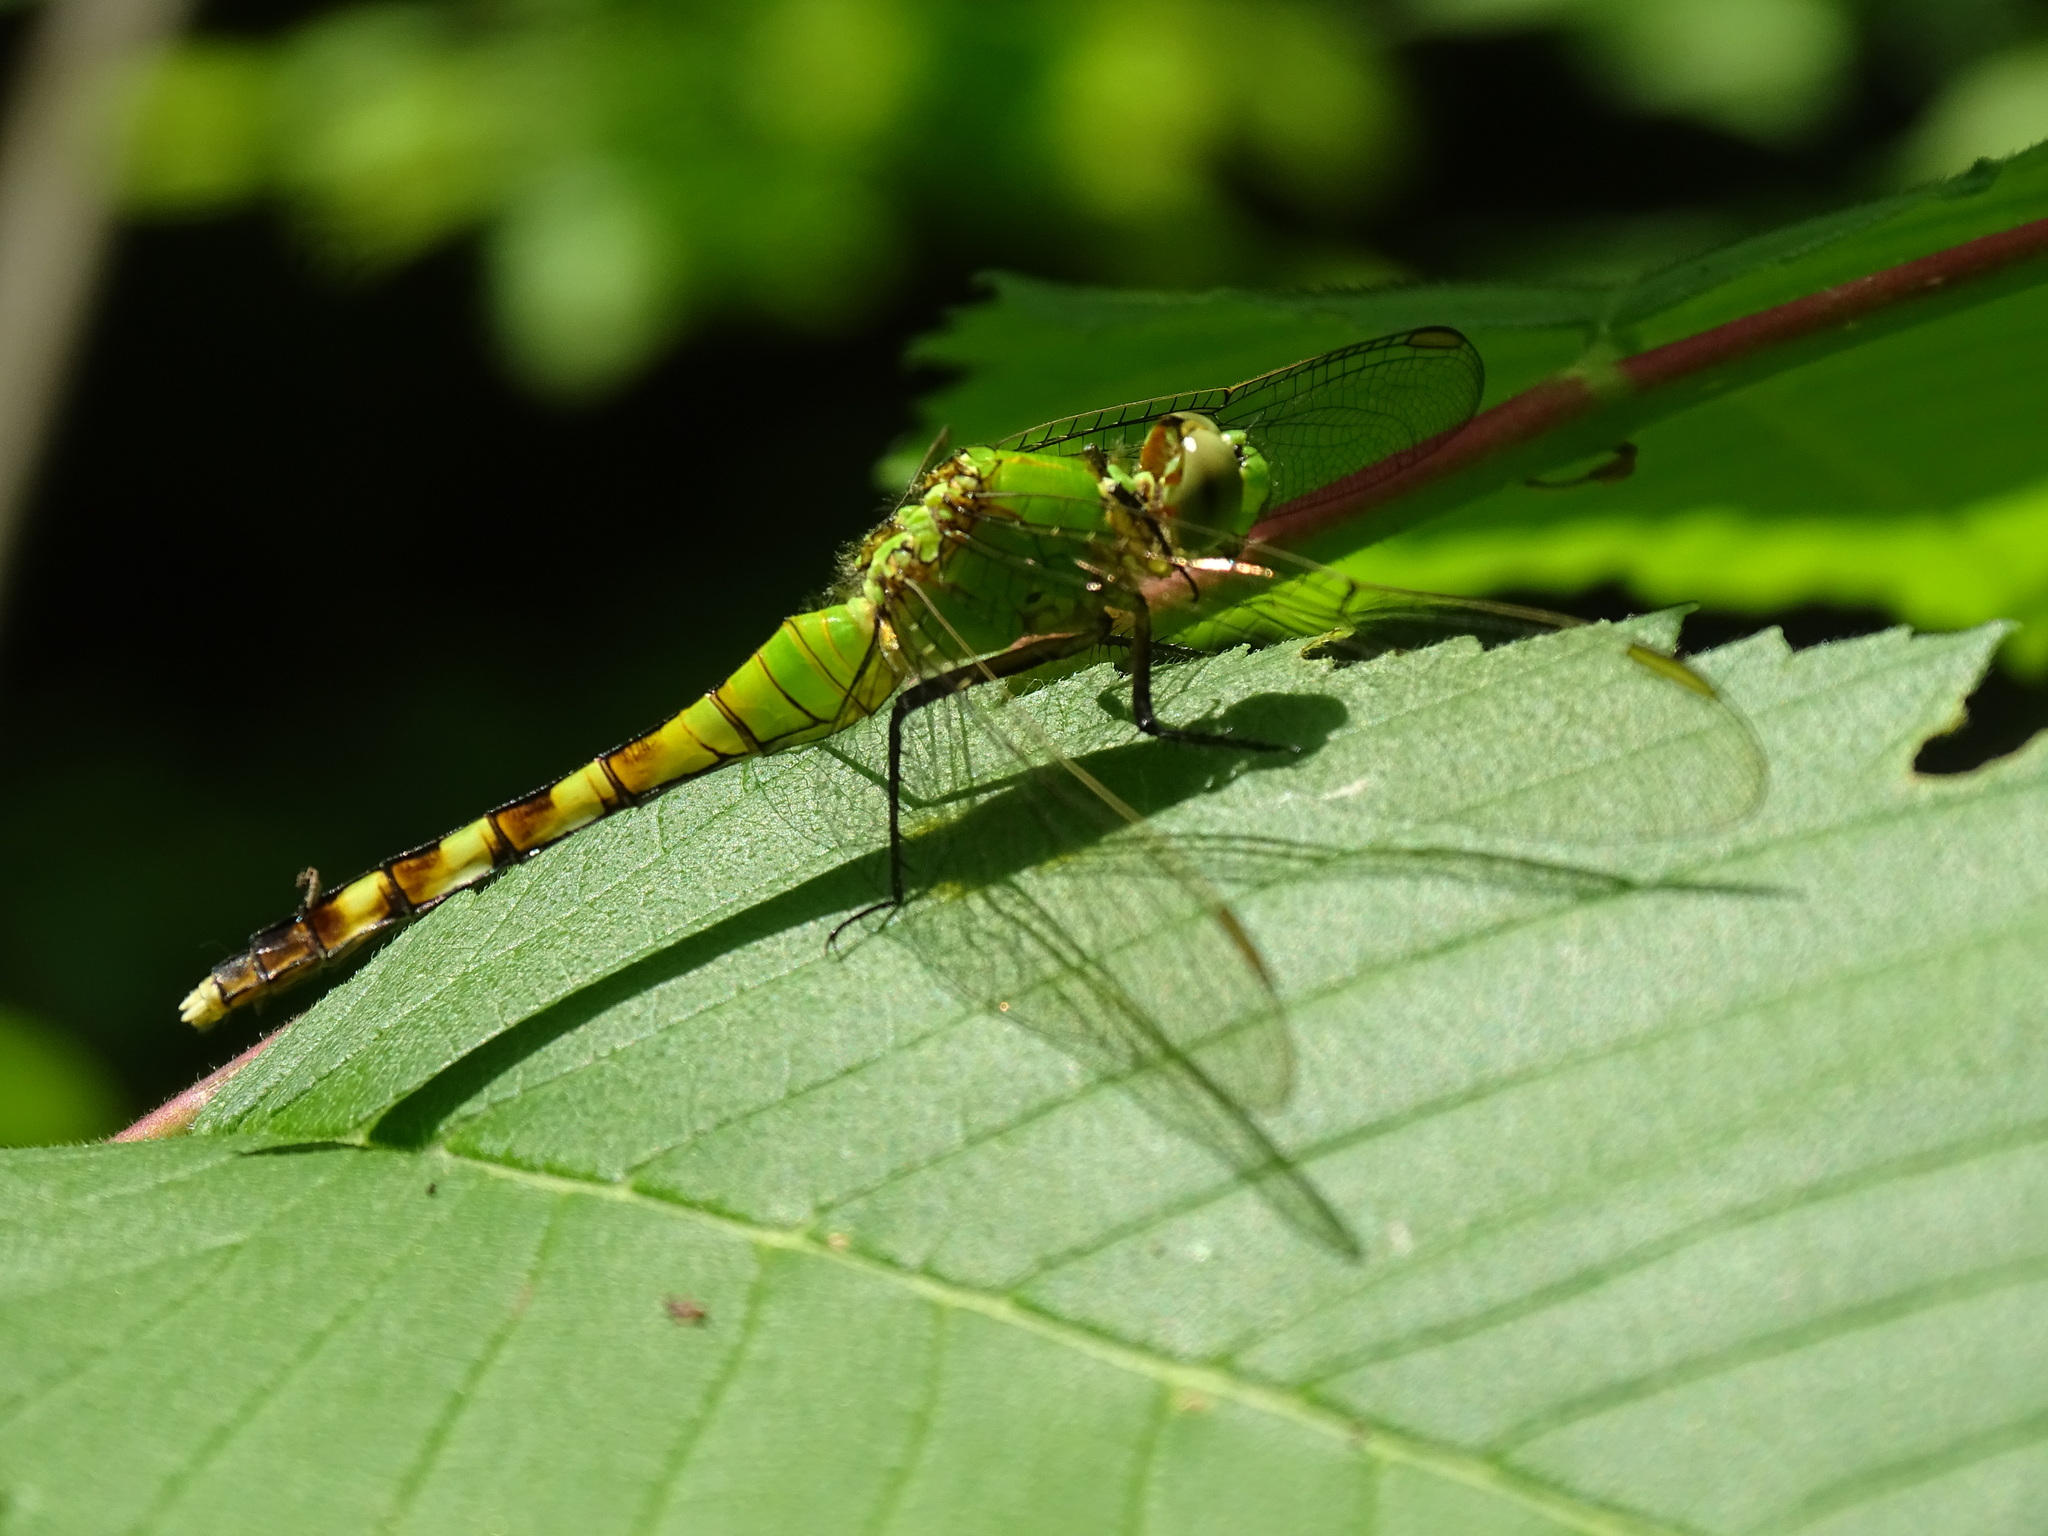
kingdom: Animalia
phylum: Arthropoda
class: Insecta
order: Odonata
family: Libellulidae
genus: Erythemis
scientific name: Erythemis simplicicollis
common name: Eastern pondhawk
